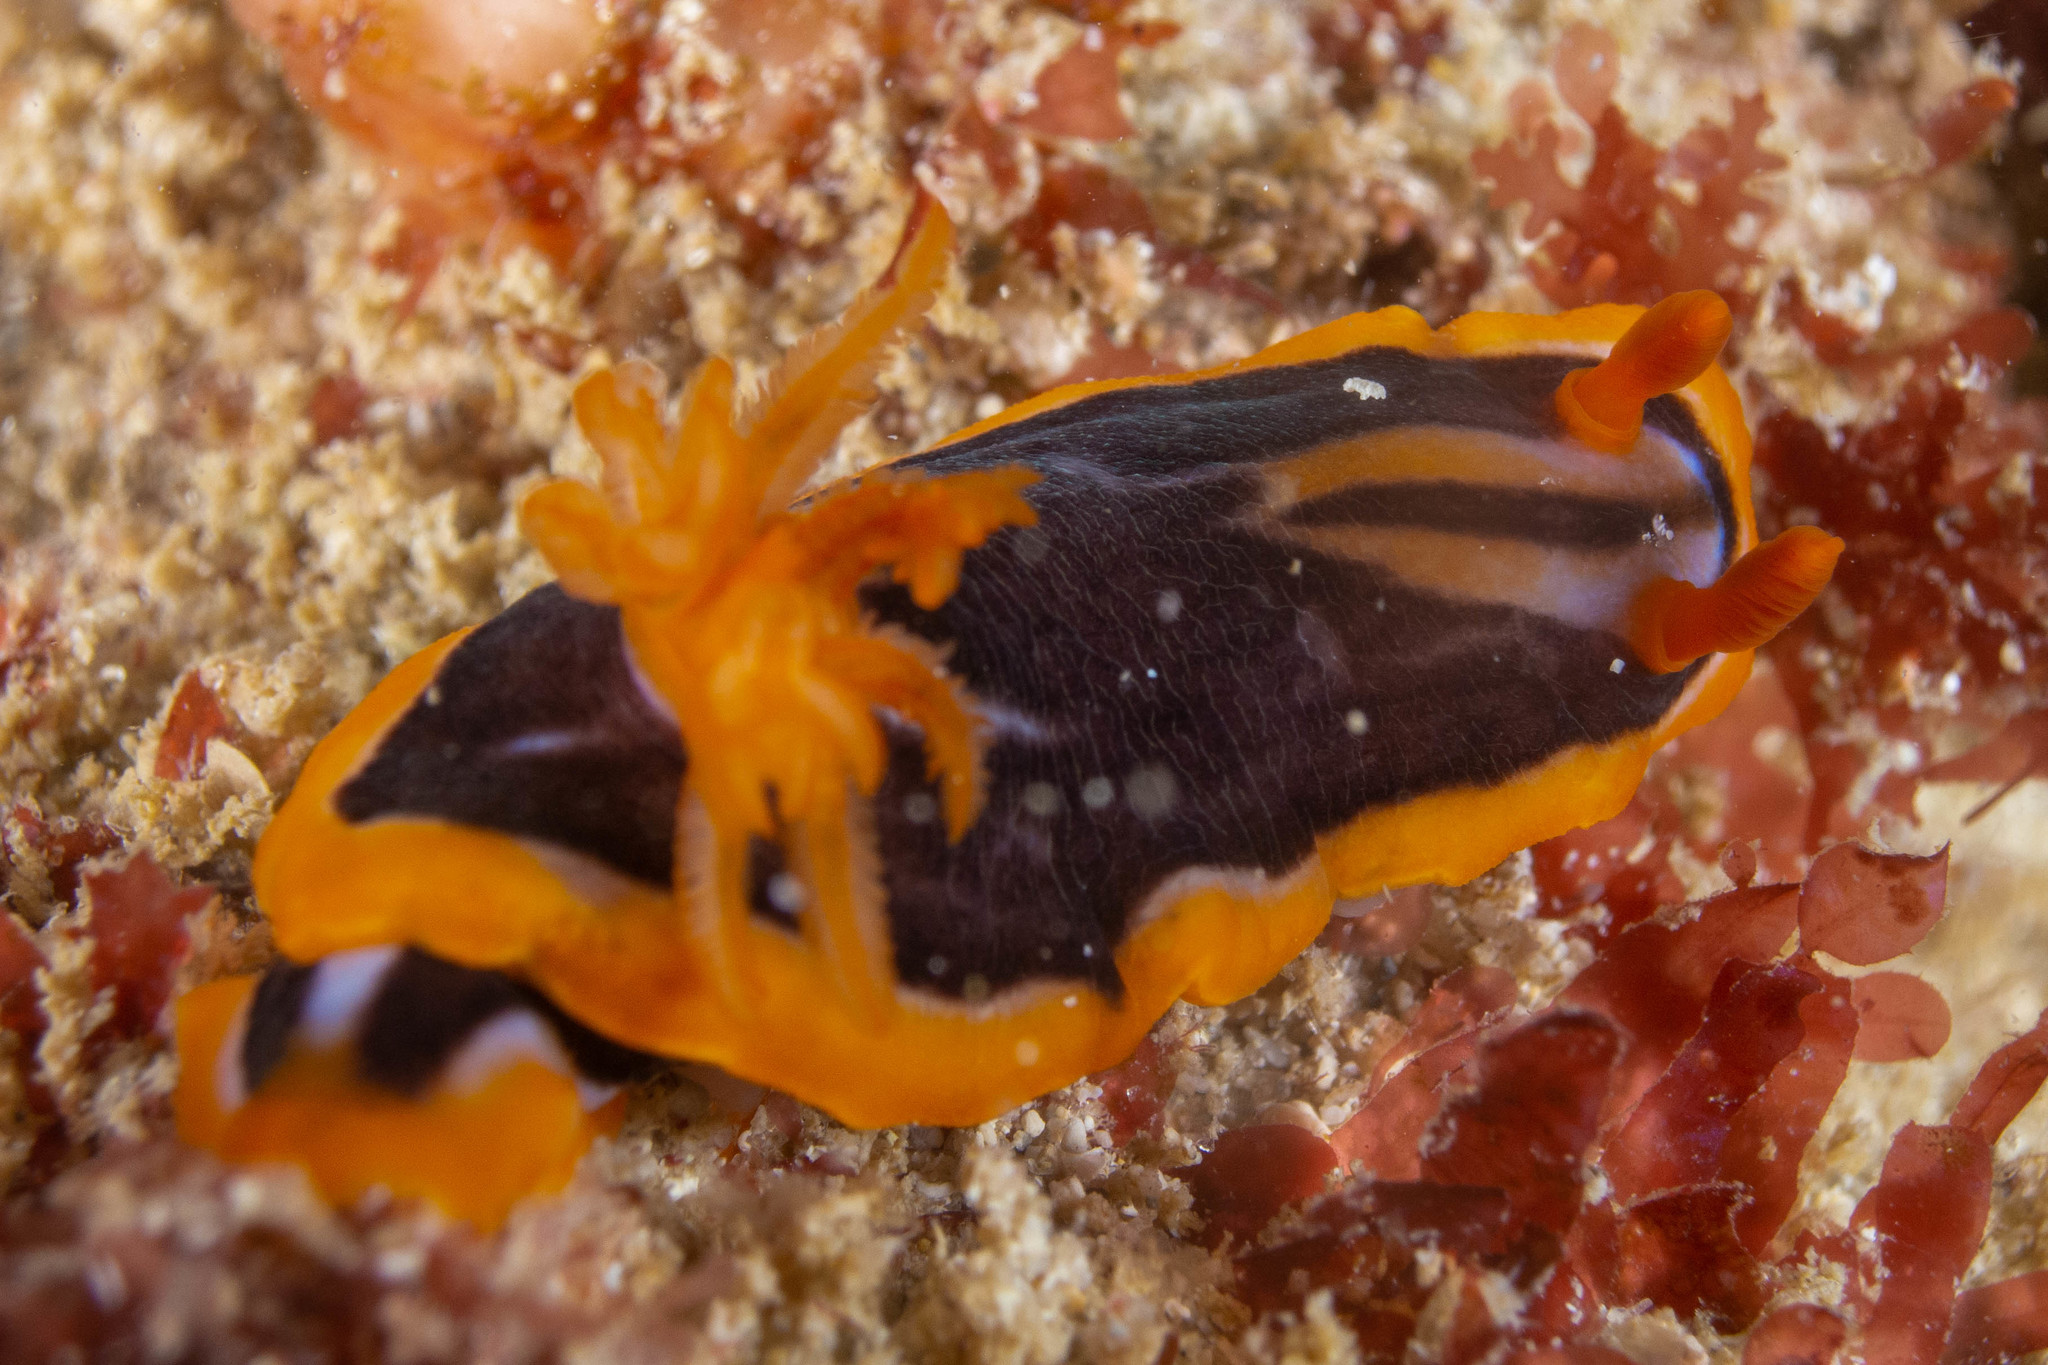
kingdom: Animalia
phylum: Mollusca
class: Gastropoda
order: Nudibranchia
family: Chromodorididae
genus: Chromodoris
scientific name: Chromodoris colemani
